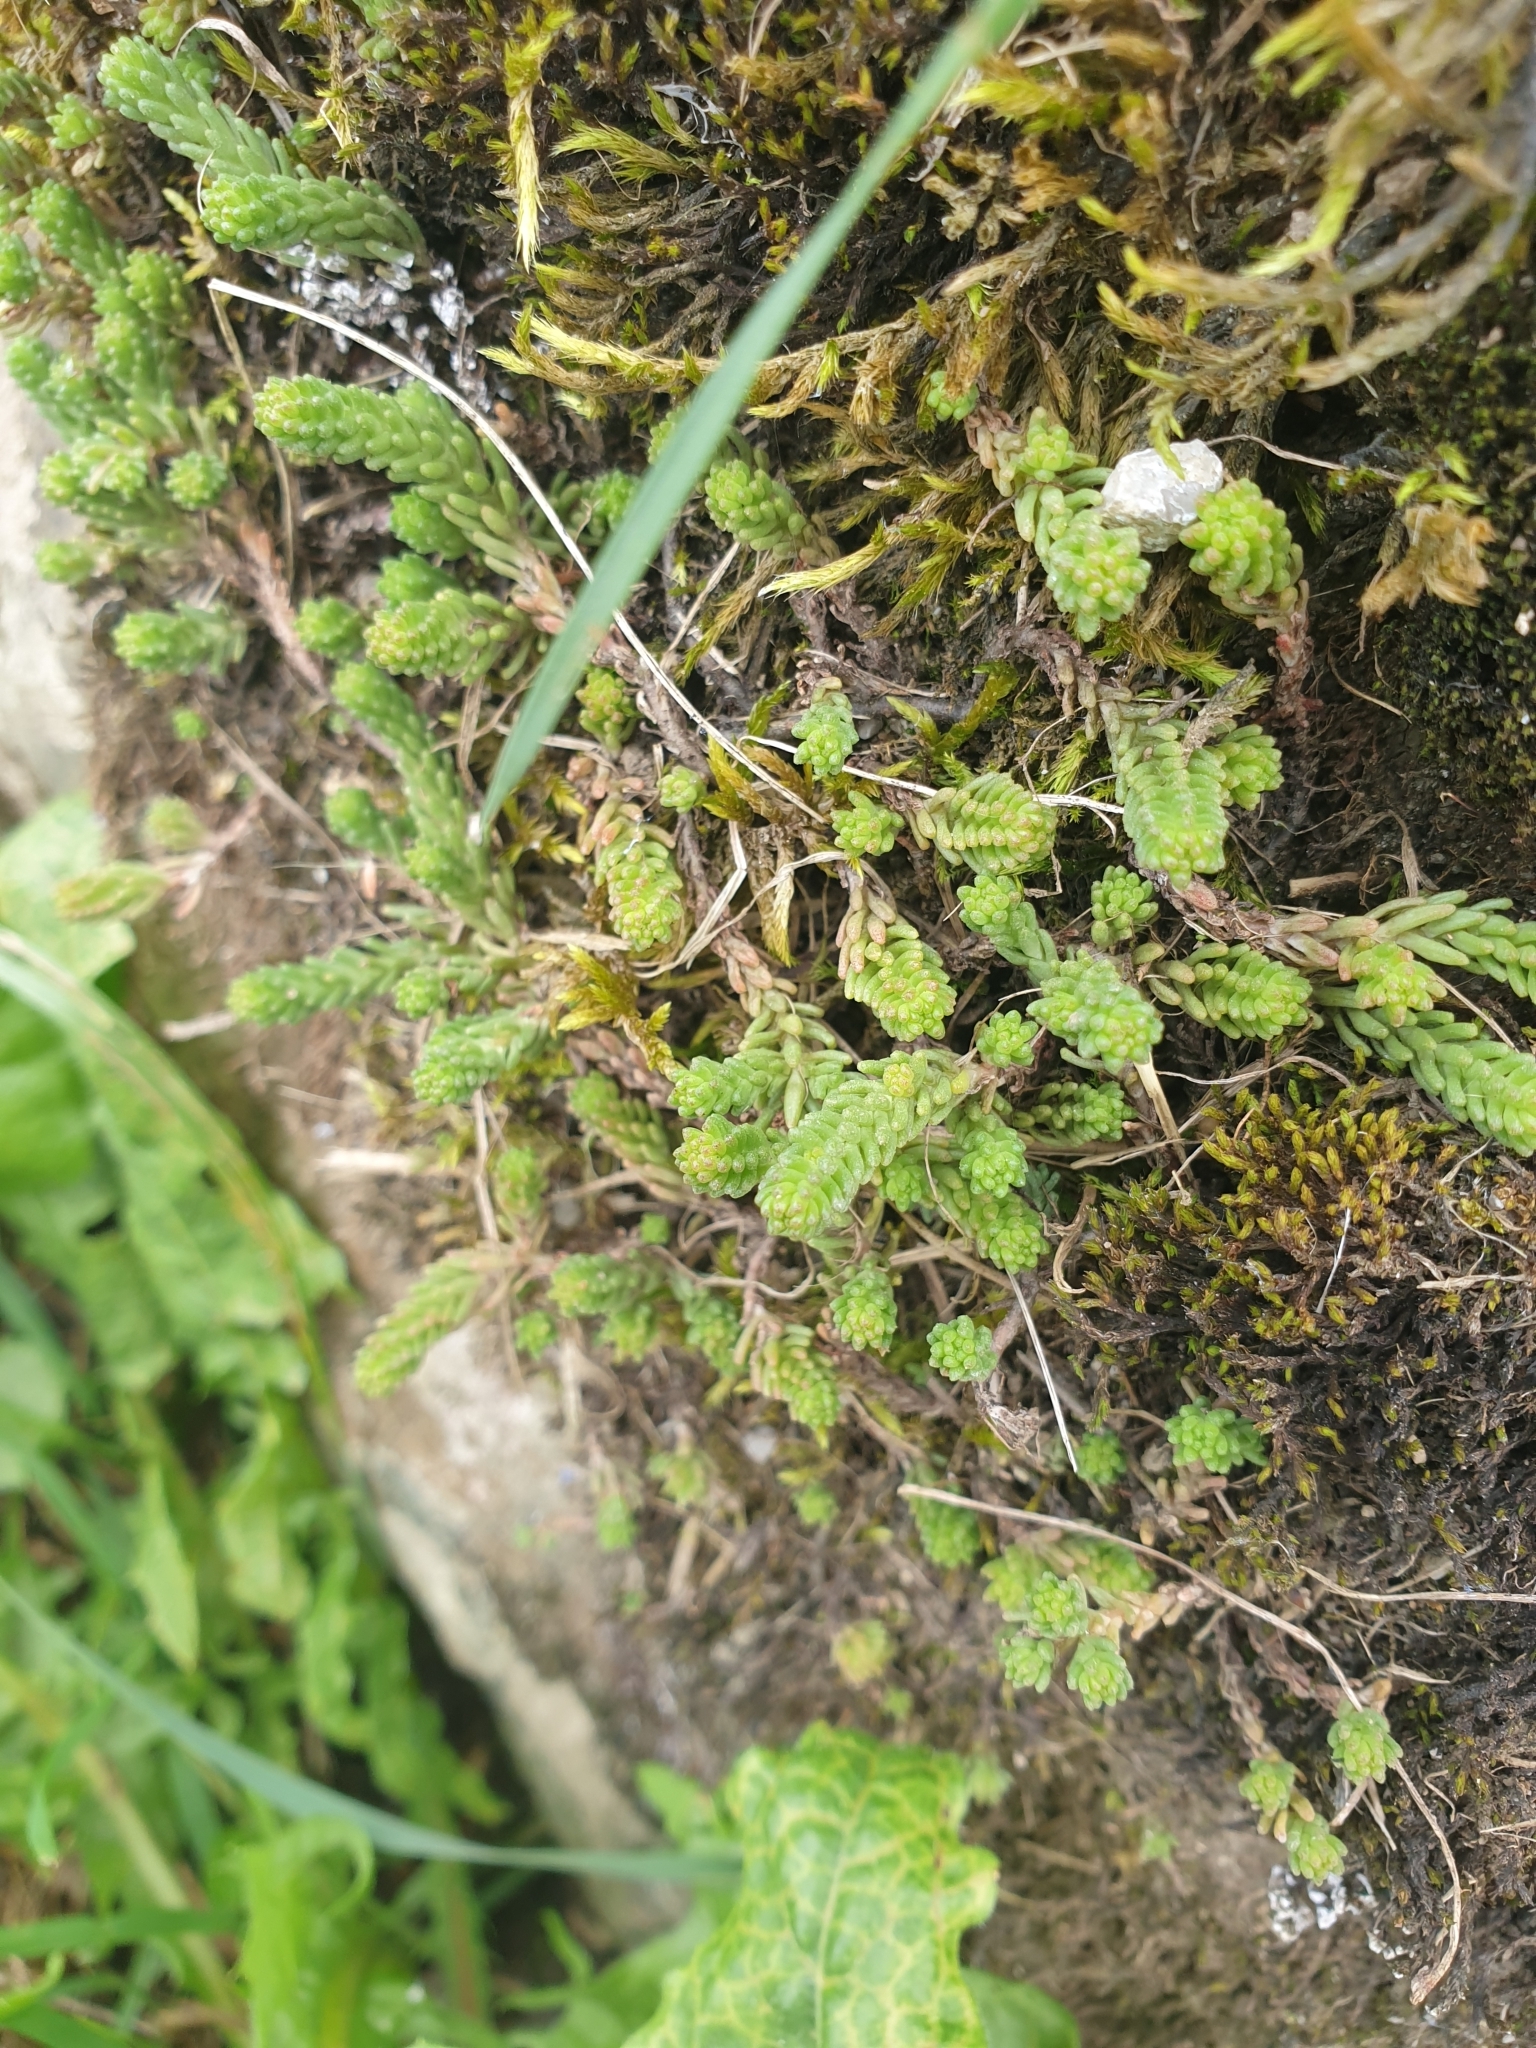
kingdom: Plantae
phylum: Tracheophyta
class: Magnoliopsida
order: Saxifragales
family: Crassulaceae
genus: Sedum
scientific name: Sedum sexangulare
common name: Tasteless stonecrop
